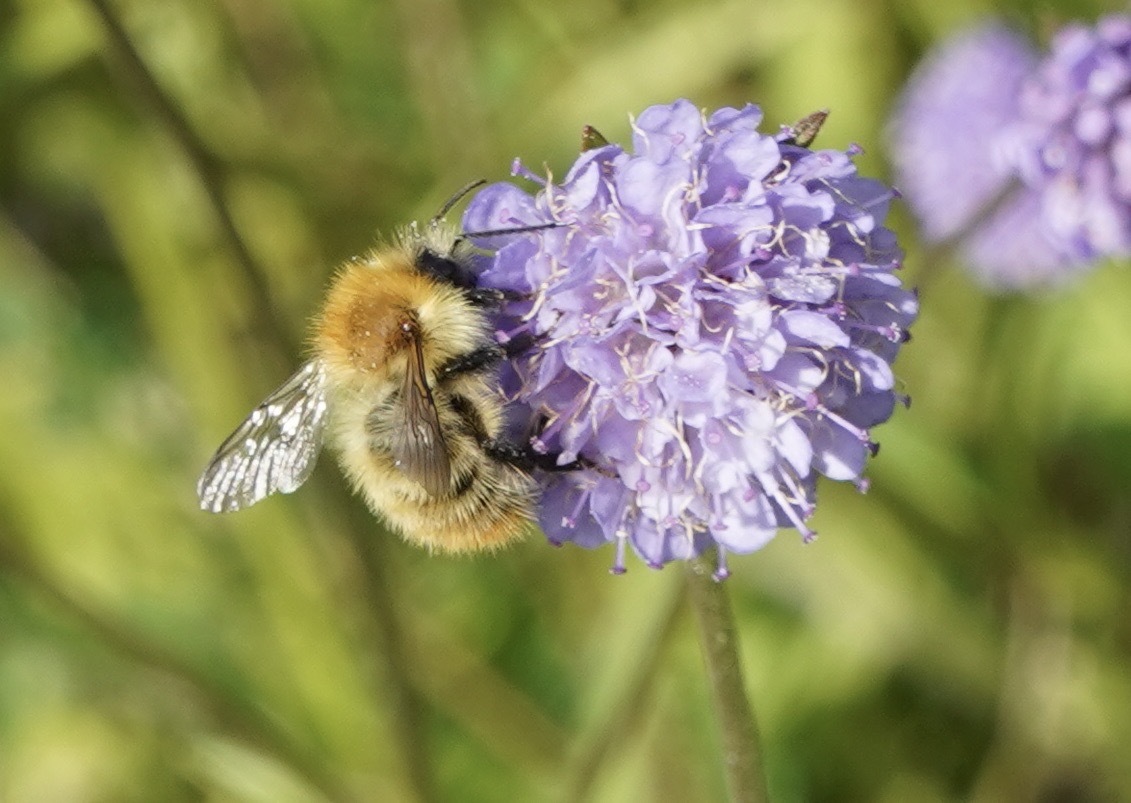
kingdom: Animalia
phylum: Arthropoda
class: Insecta
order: Hymenoptera
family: Apidae
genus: Bombus
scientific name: Bombus pascuorum
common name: Common carder bee
